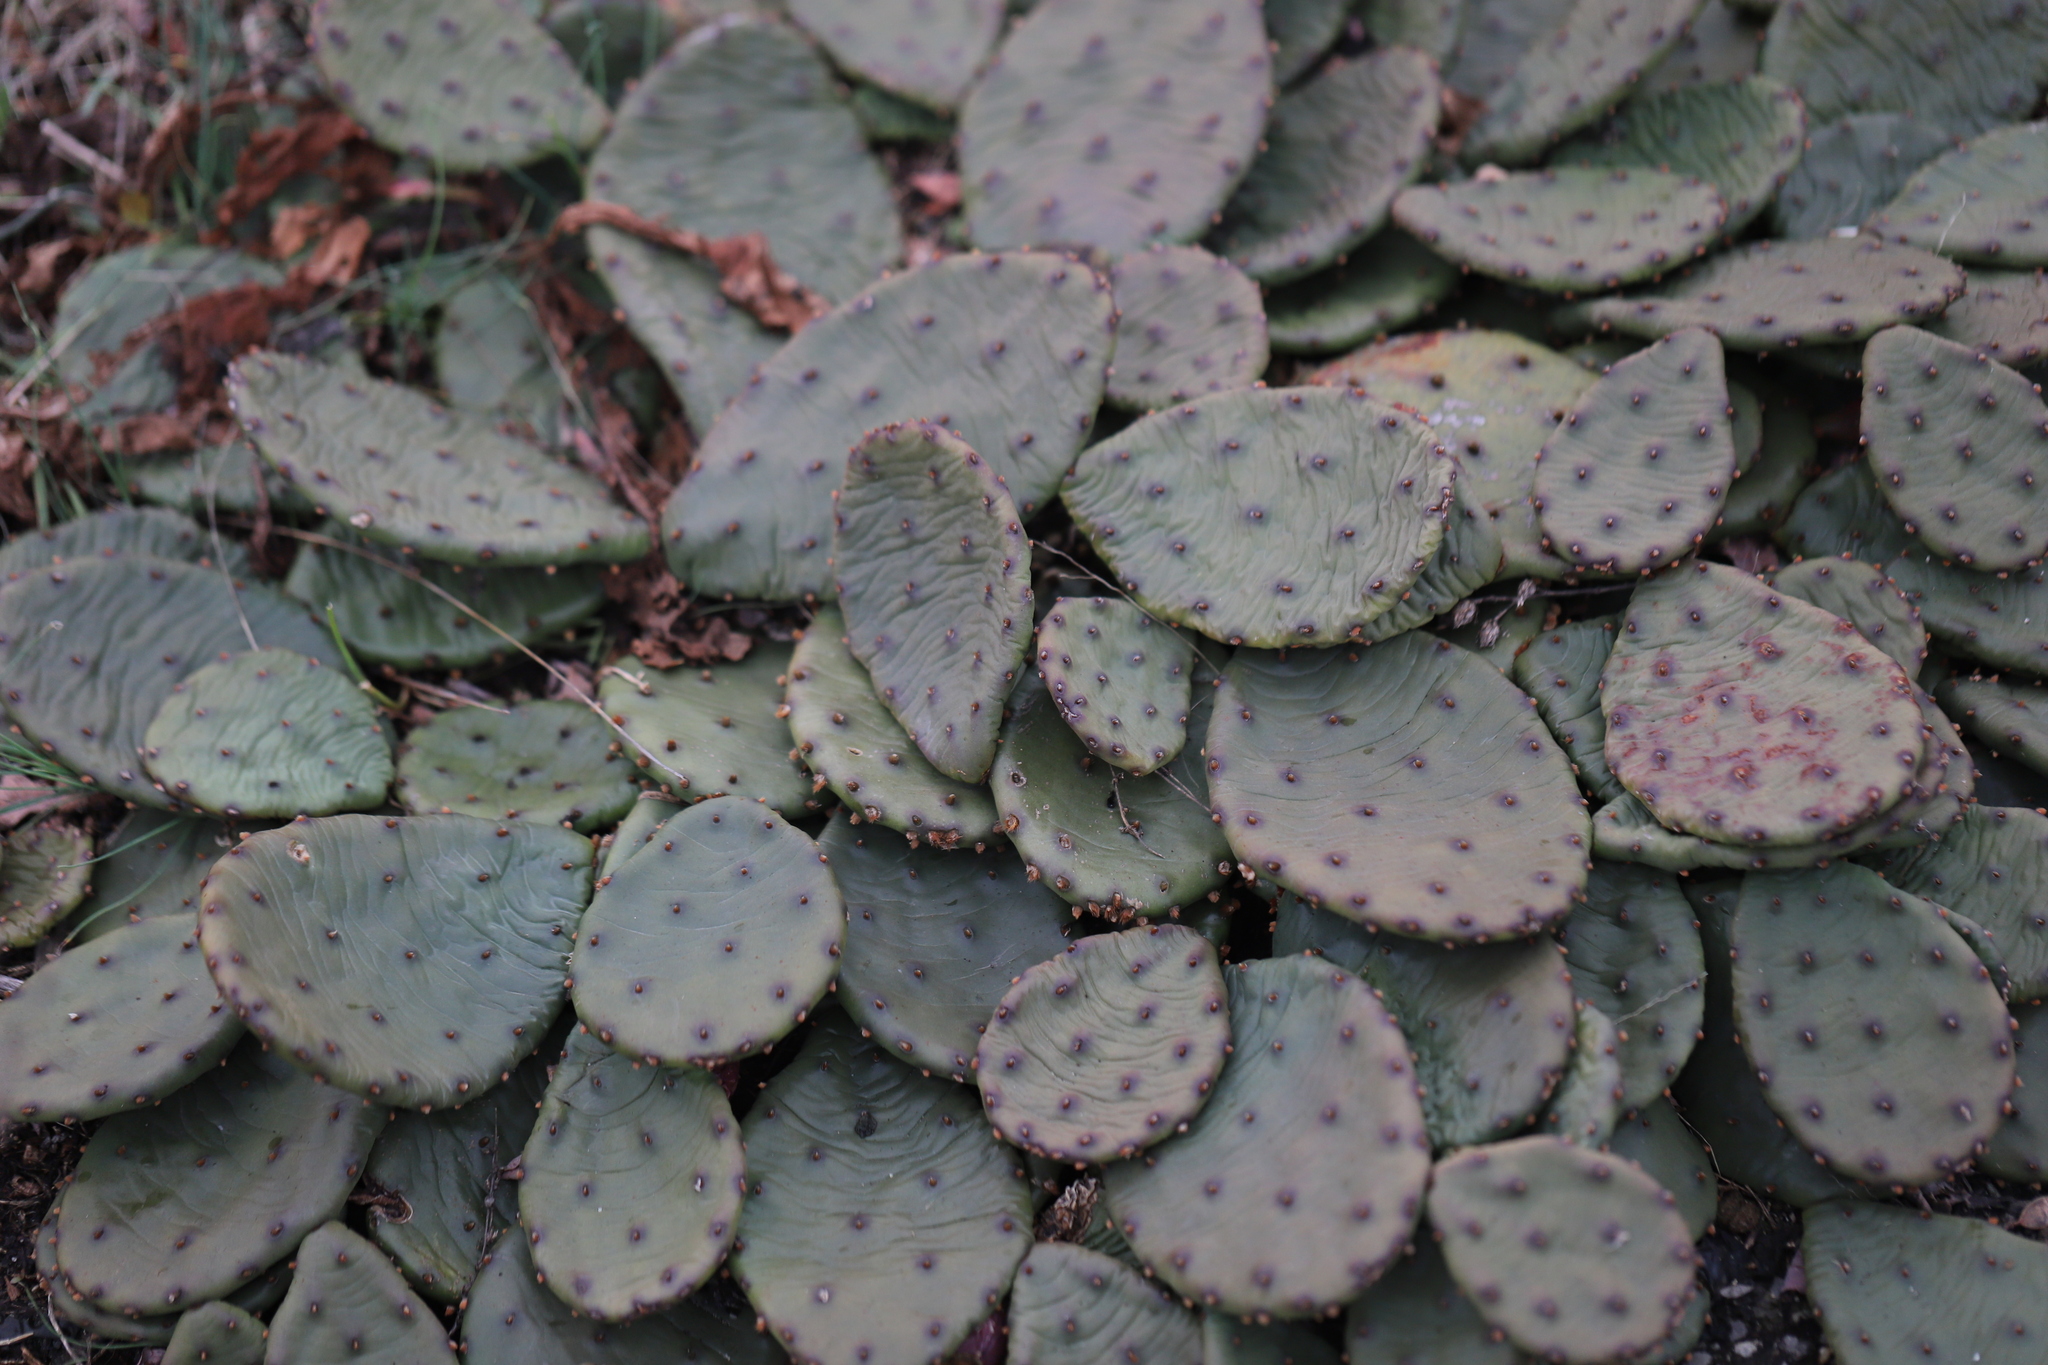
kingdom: Plantae
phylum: Tracheophyta
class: Magnoliopsida
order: Caryophyllales
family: Cactaceae
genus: Opuntia
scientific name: Opuntia humifusa
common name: Eastern prickly-pear
